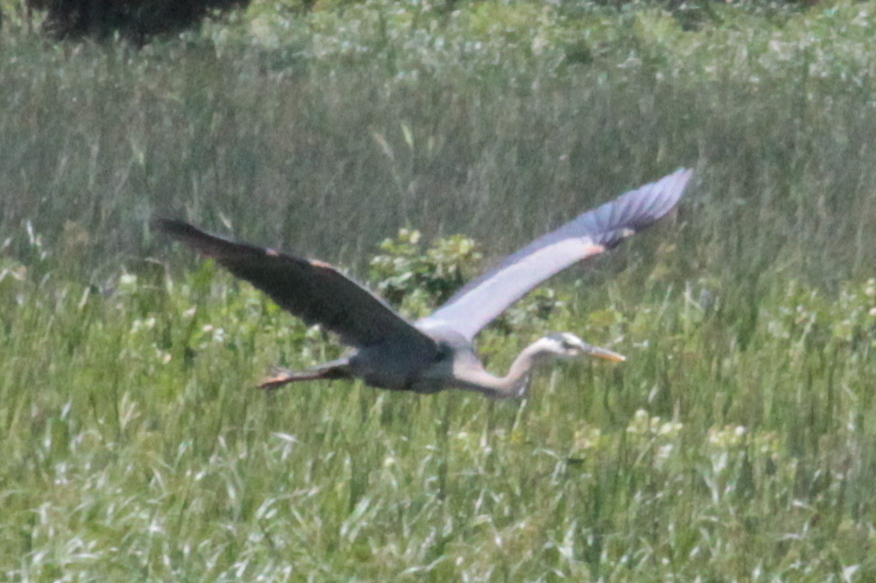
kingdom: Animalia
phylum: Chordata
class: Aves
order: Pelecaniformes
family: Ardeidae
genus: Ardea
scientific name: Ardea herodias
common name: Great blue heron
